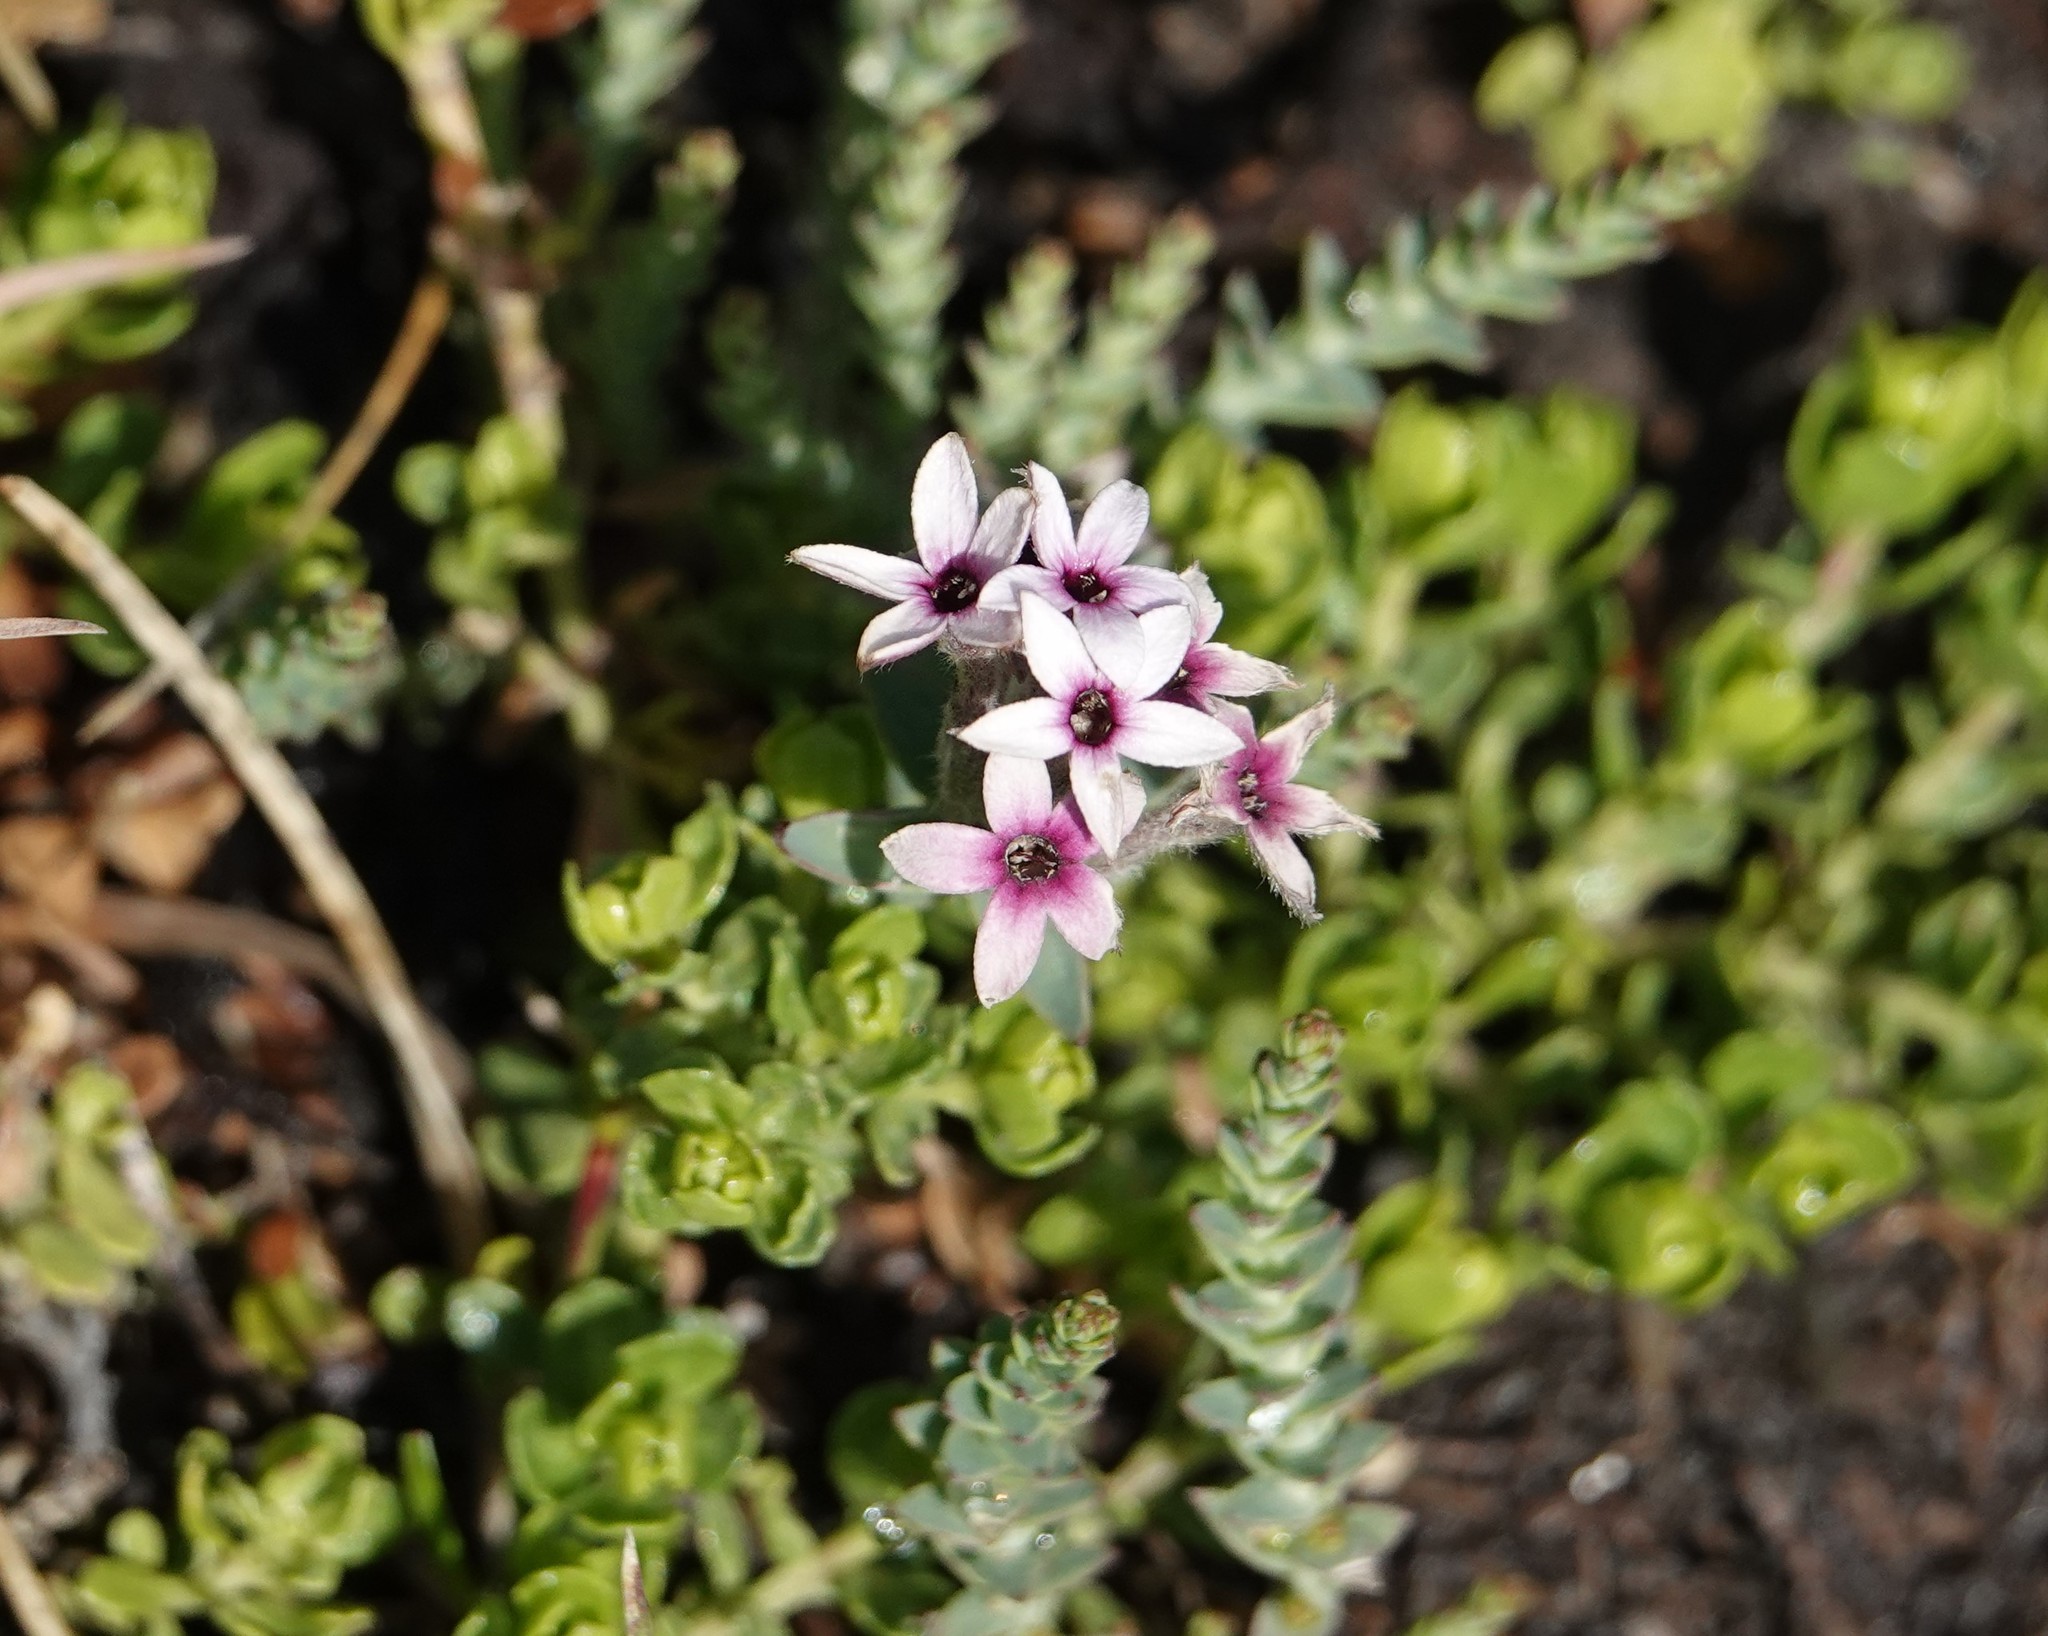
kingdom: Plantae
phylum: Tracheophyta
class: Magnoliopsida
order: Santalales
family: Schoepfiaceae
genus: Arjona
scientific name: Arjona patagonica
